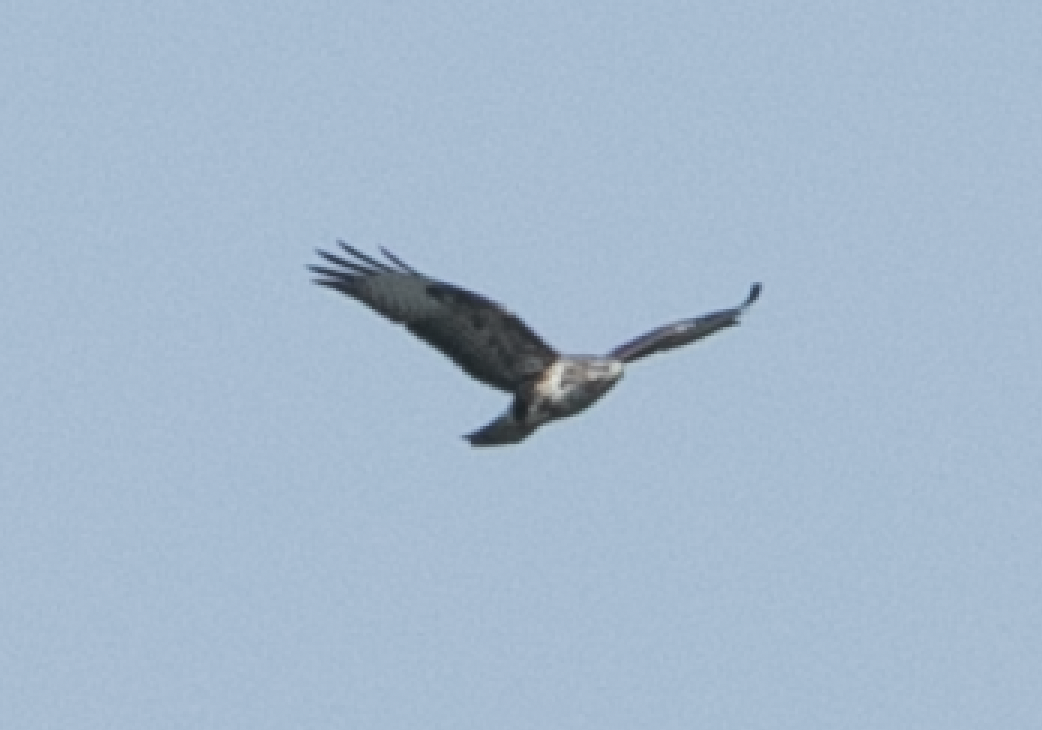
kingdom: Animalia
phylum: Chordata
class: Aves
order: Accipitriformes
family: Accipitridae
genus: Buteo
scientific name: Buteo buteo
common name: Common buzzard
